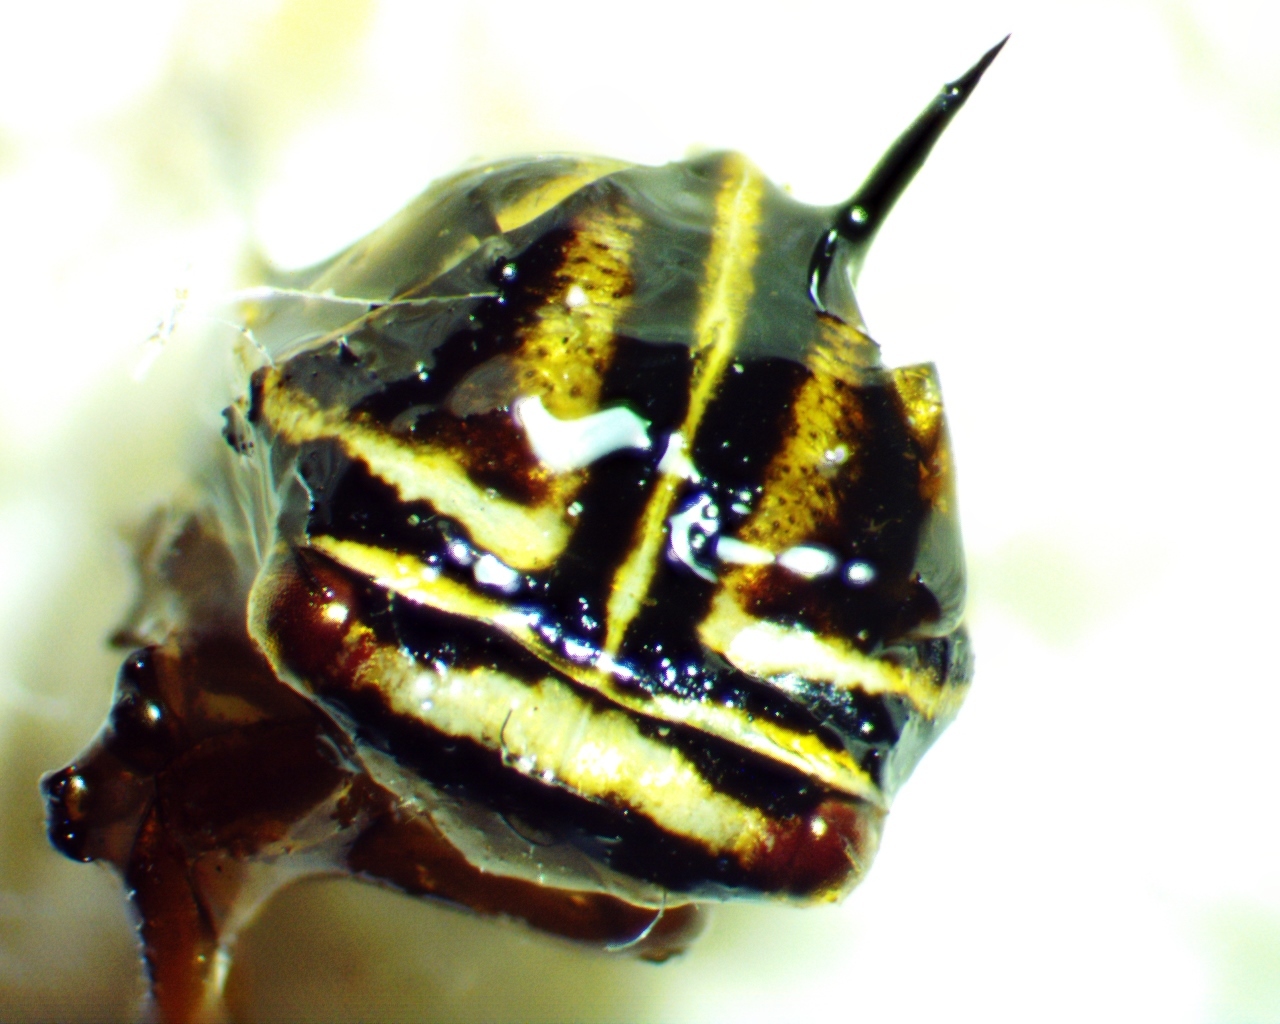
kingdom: Animalia
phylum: Arthropoda
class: Insecta
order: Hemiptera
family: Membracidae
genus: Platycotis
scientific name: Platycotis vittatus
